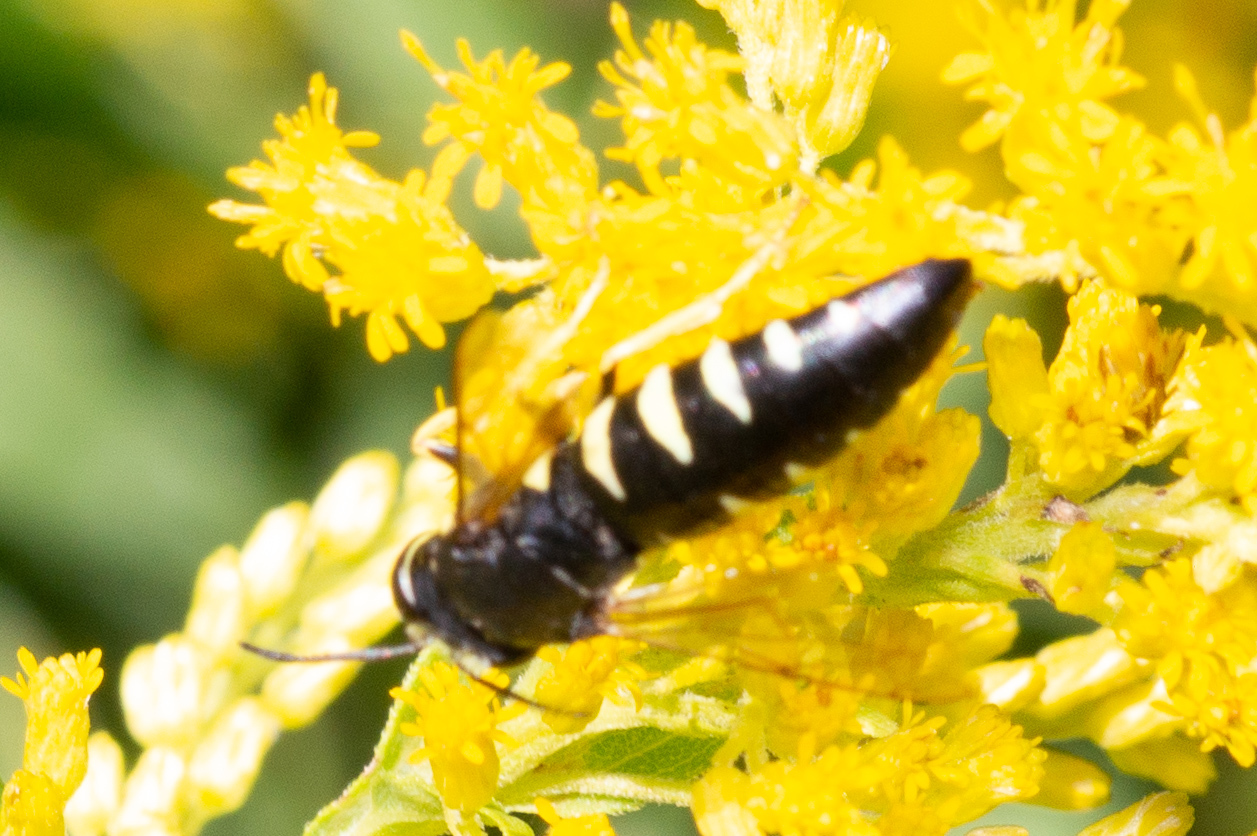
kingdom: Animalia
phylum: Arthropoda
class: Insecta
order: Hymenoptera
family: Crabronidae
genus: Bicyrtes
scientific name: Bicyrtes quadrifasciatus
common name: Four-banded stink bug hunter wasp
